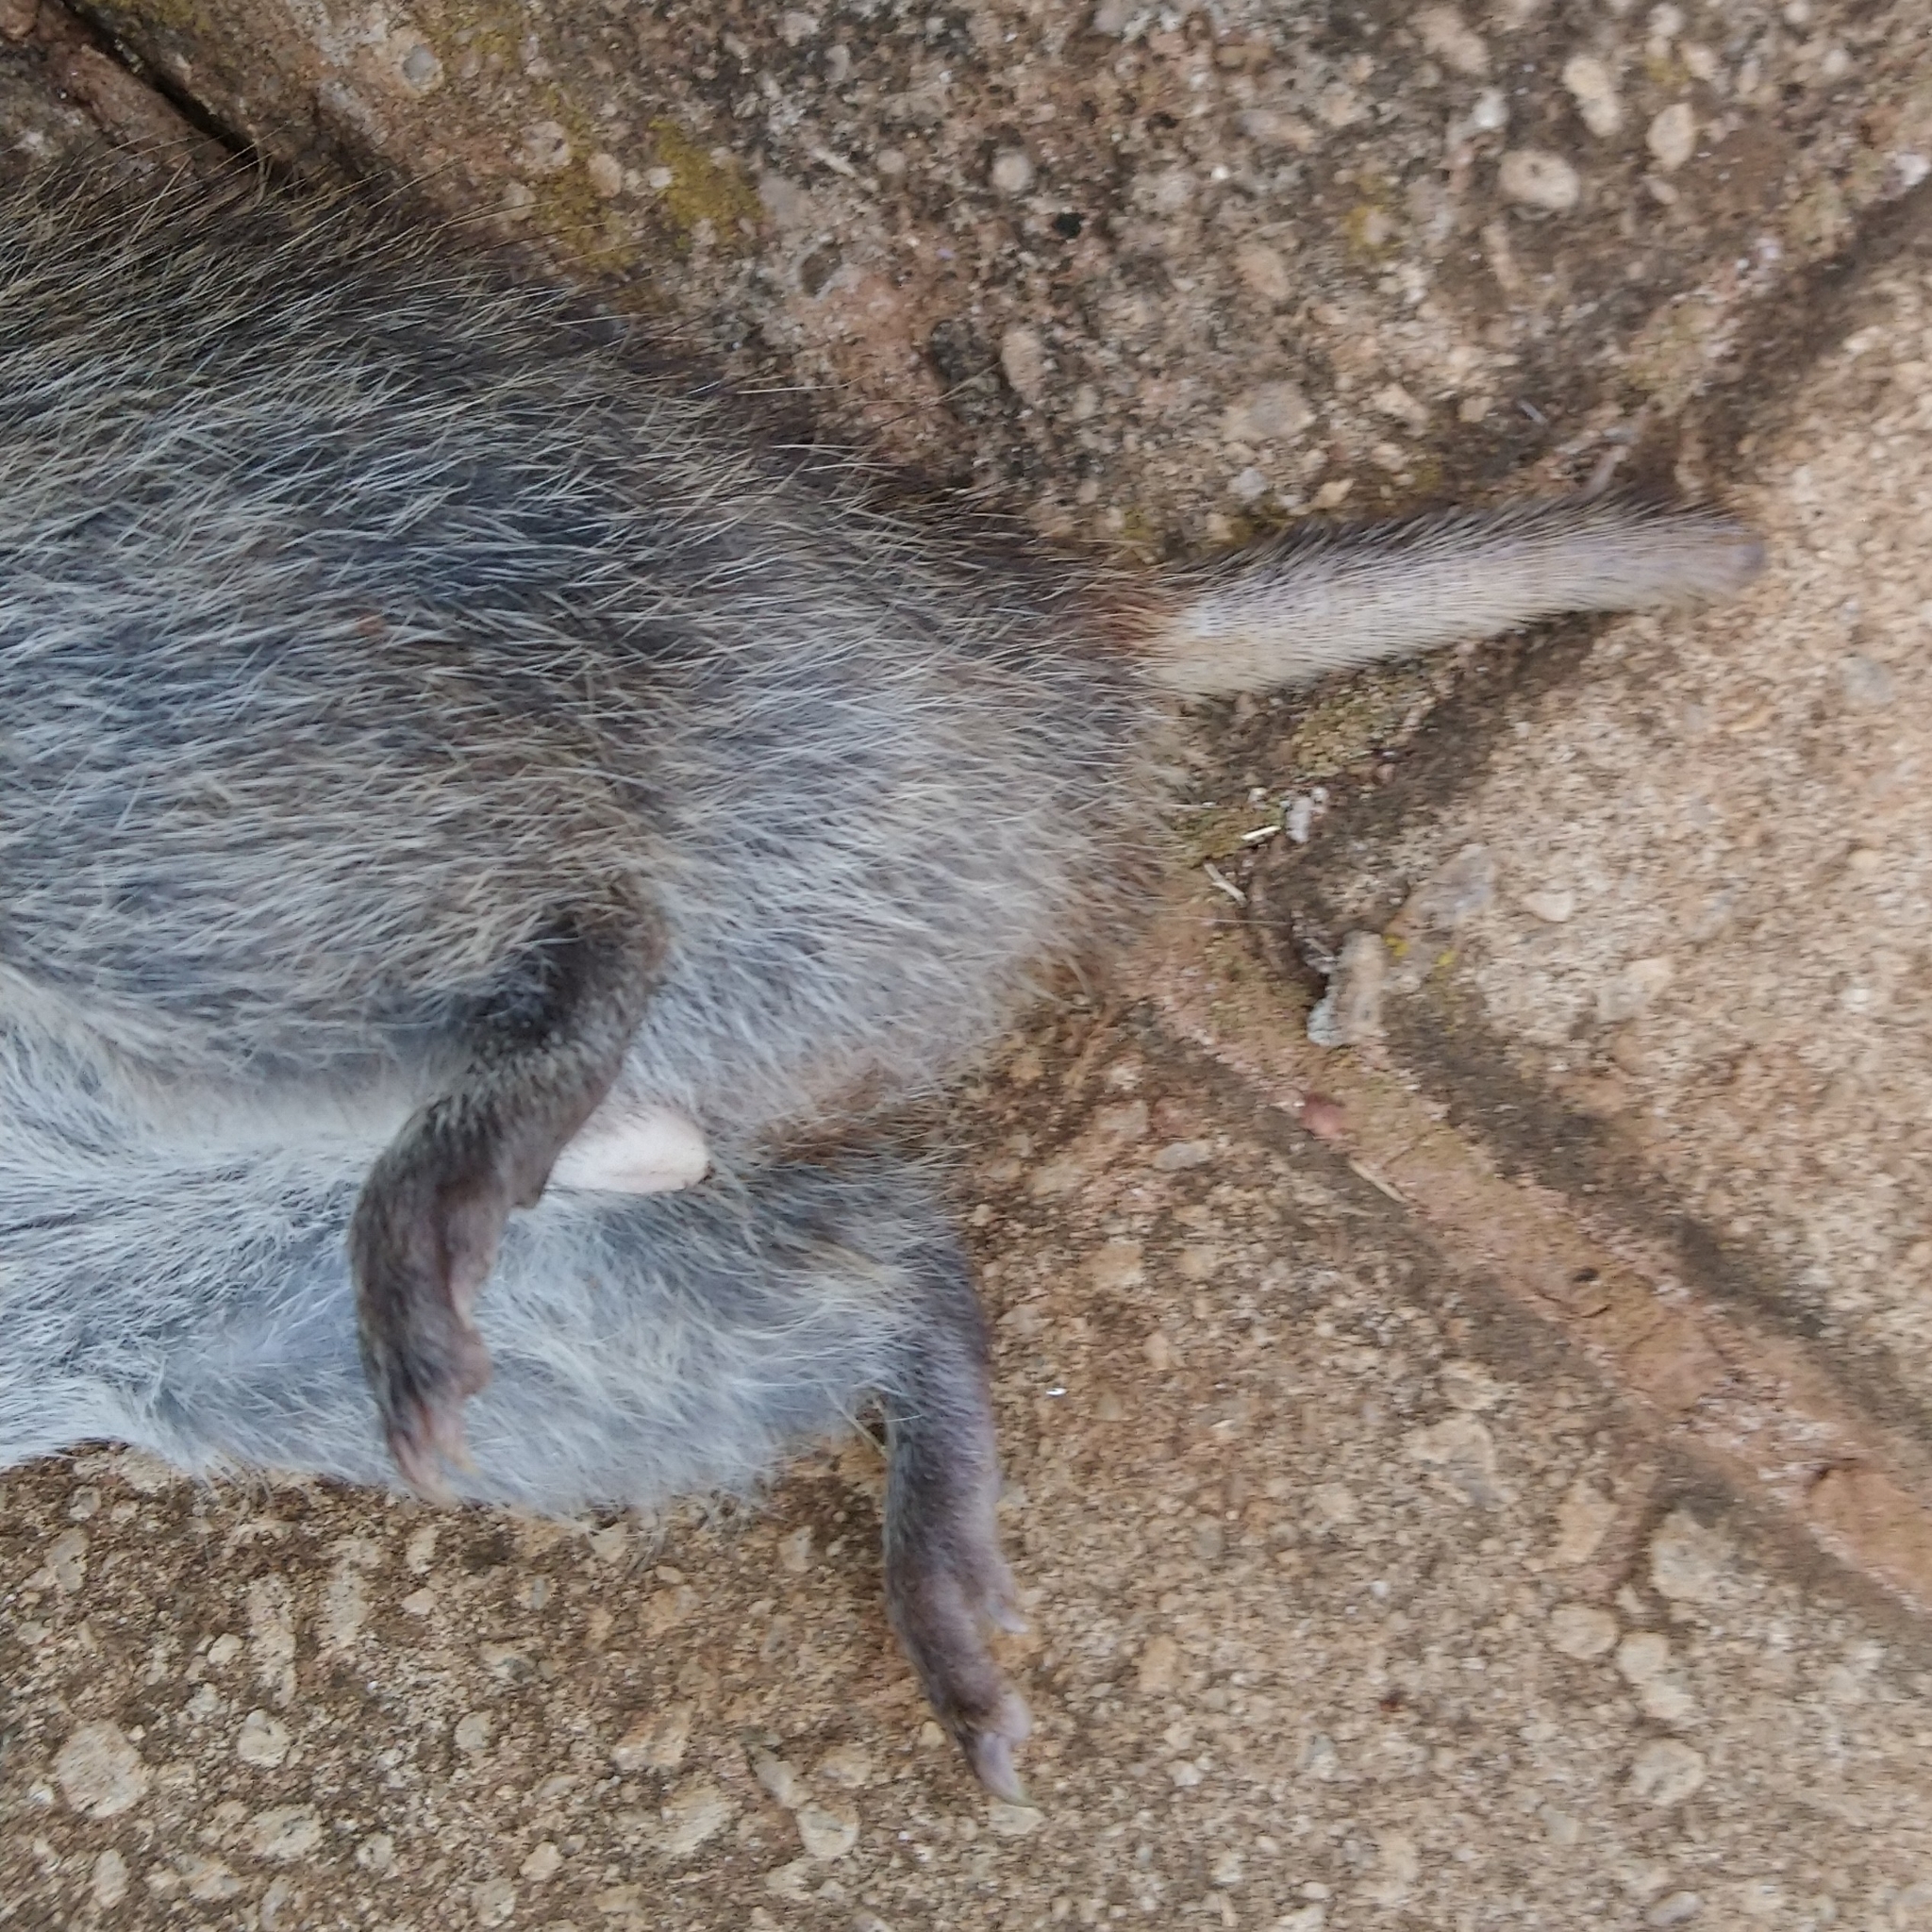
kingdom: Animalia
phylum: Chordata
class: Mammalia
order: Rodentia
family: Muridae
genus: Otomys
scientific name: Otomys irroratus
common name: Southern african vlei rat
